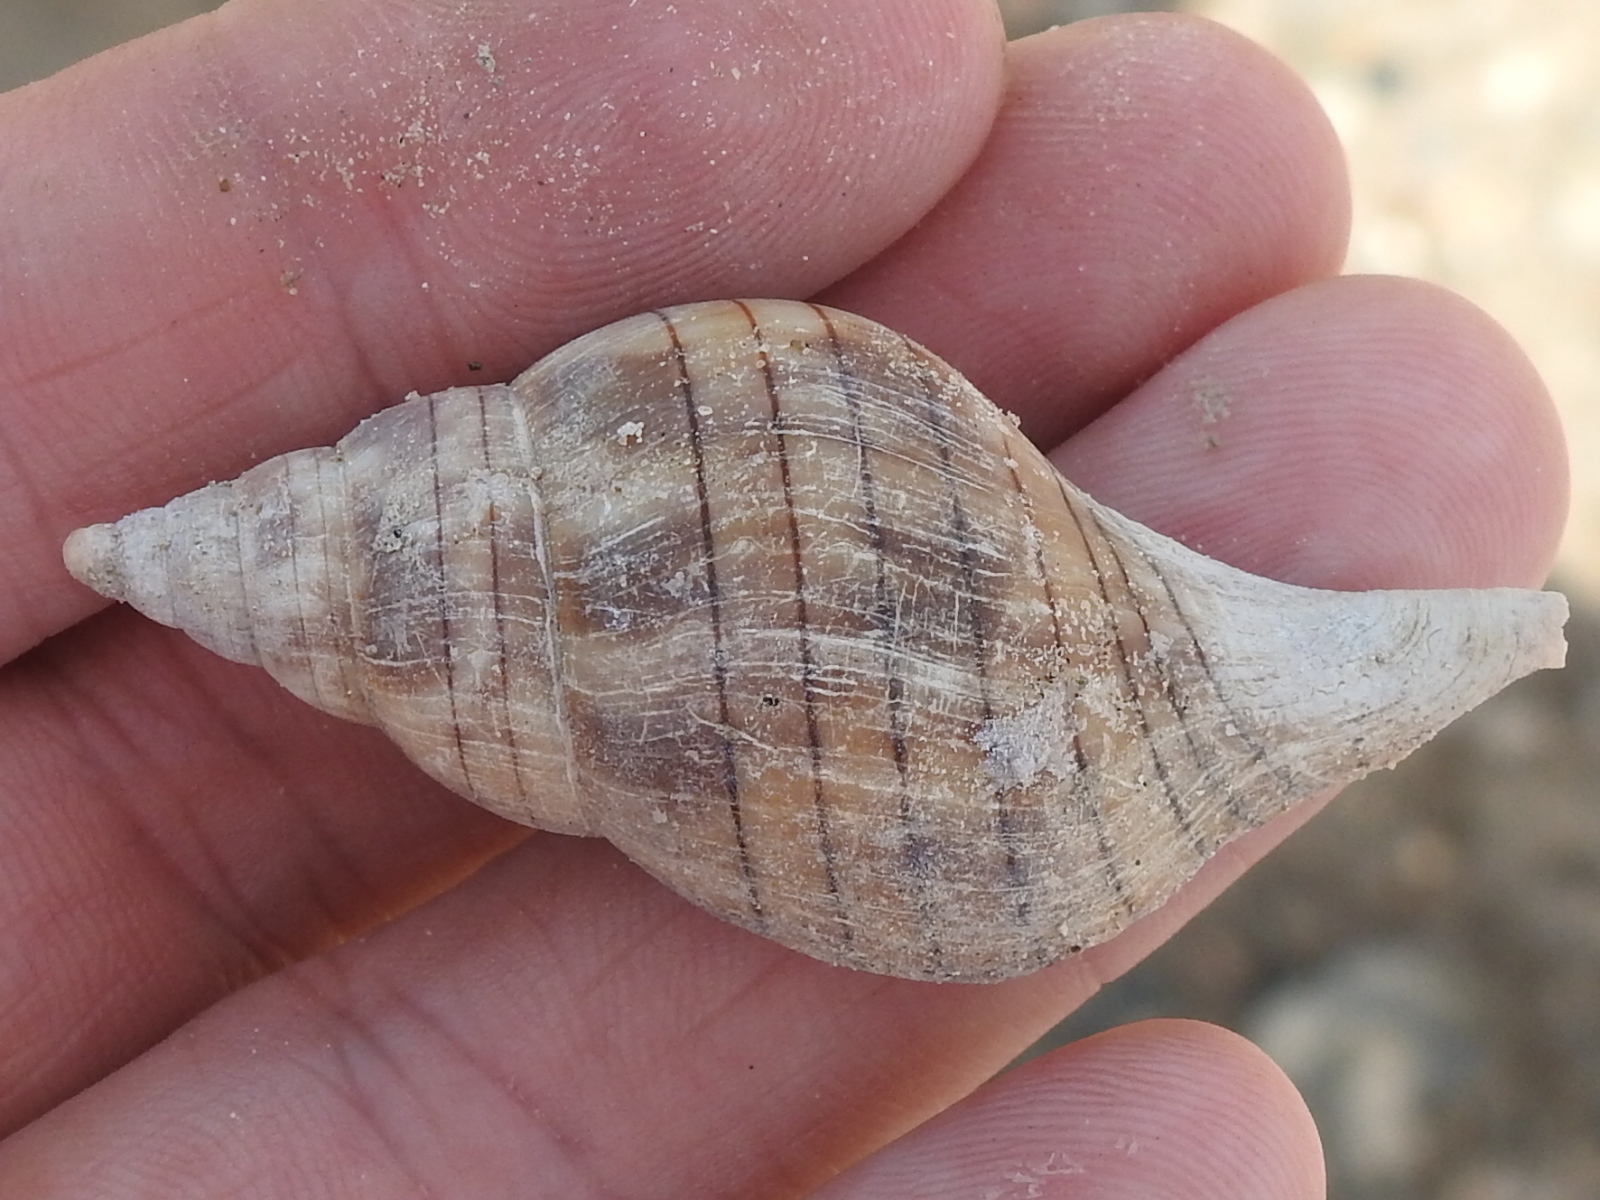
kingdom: Animalia
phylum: Mollusca
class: Gastropoda
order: Neogastropoda
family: Fasciolariidae
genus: Cinctura
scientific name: Cinctura lilium
